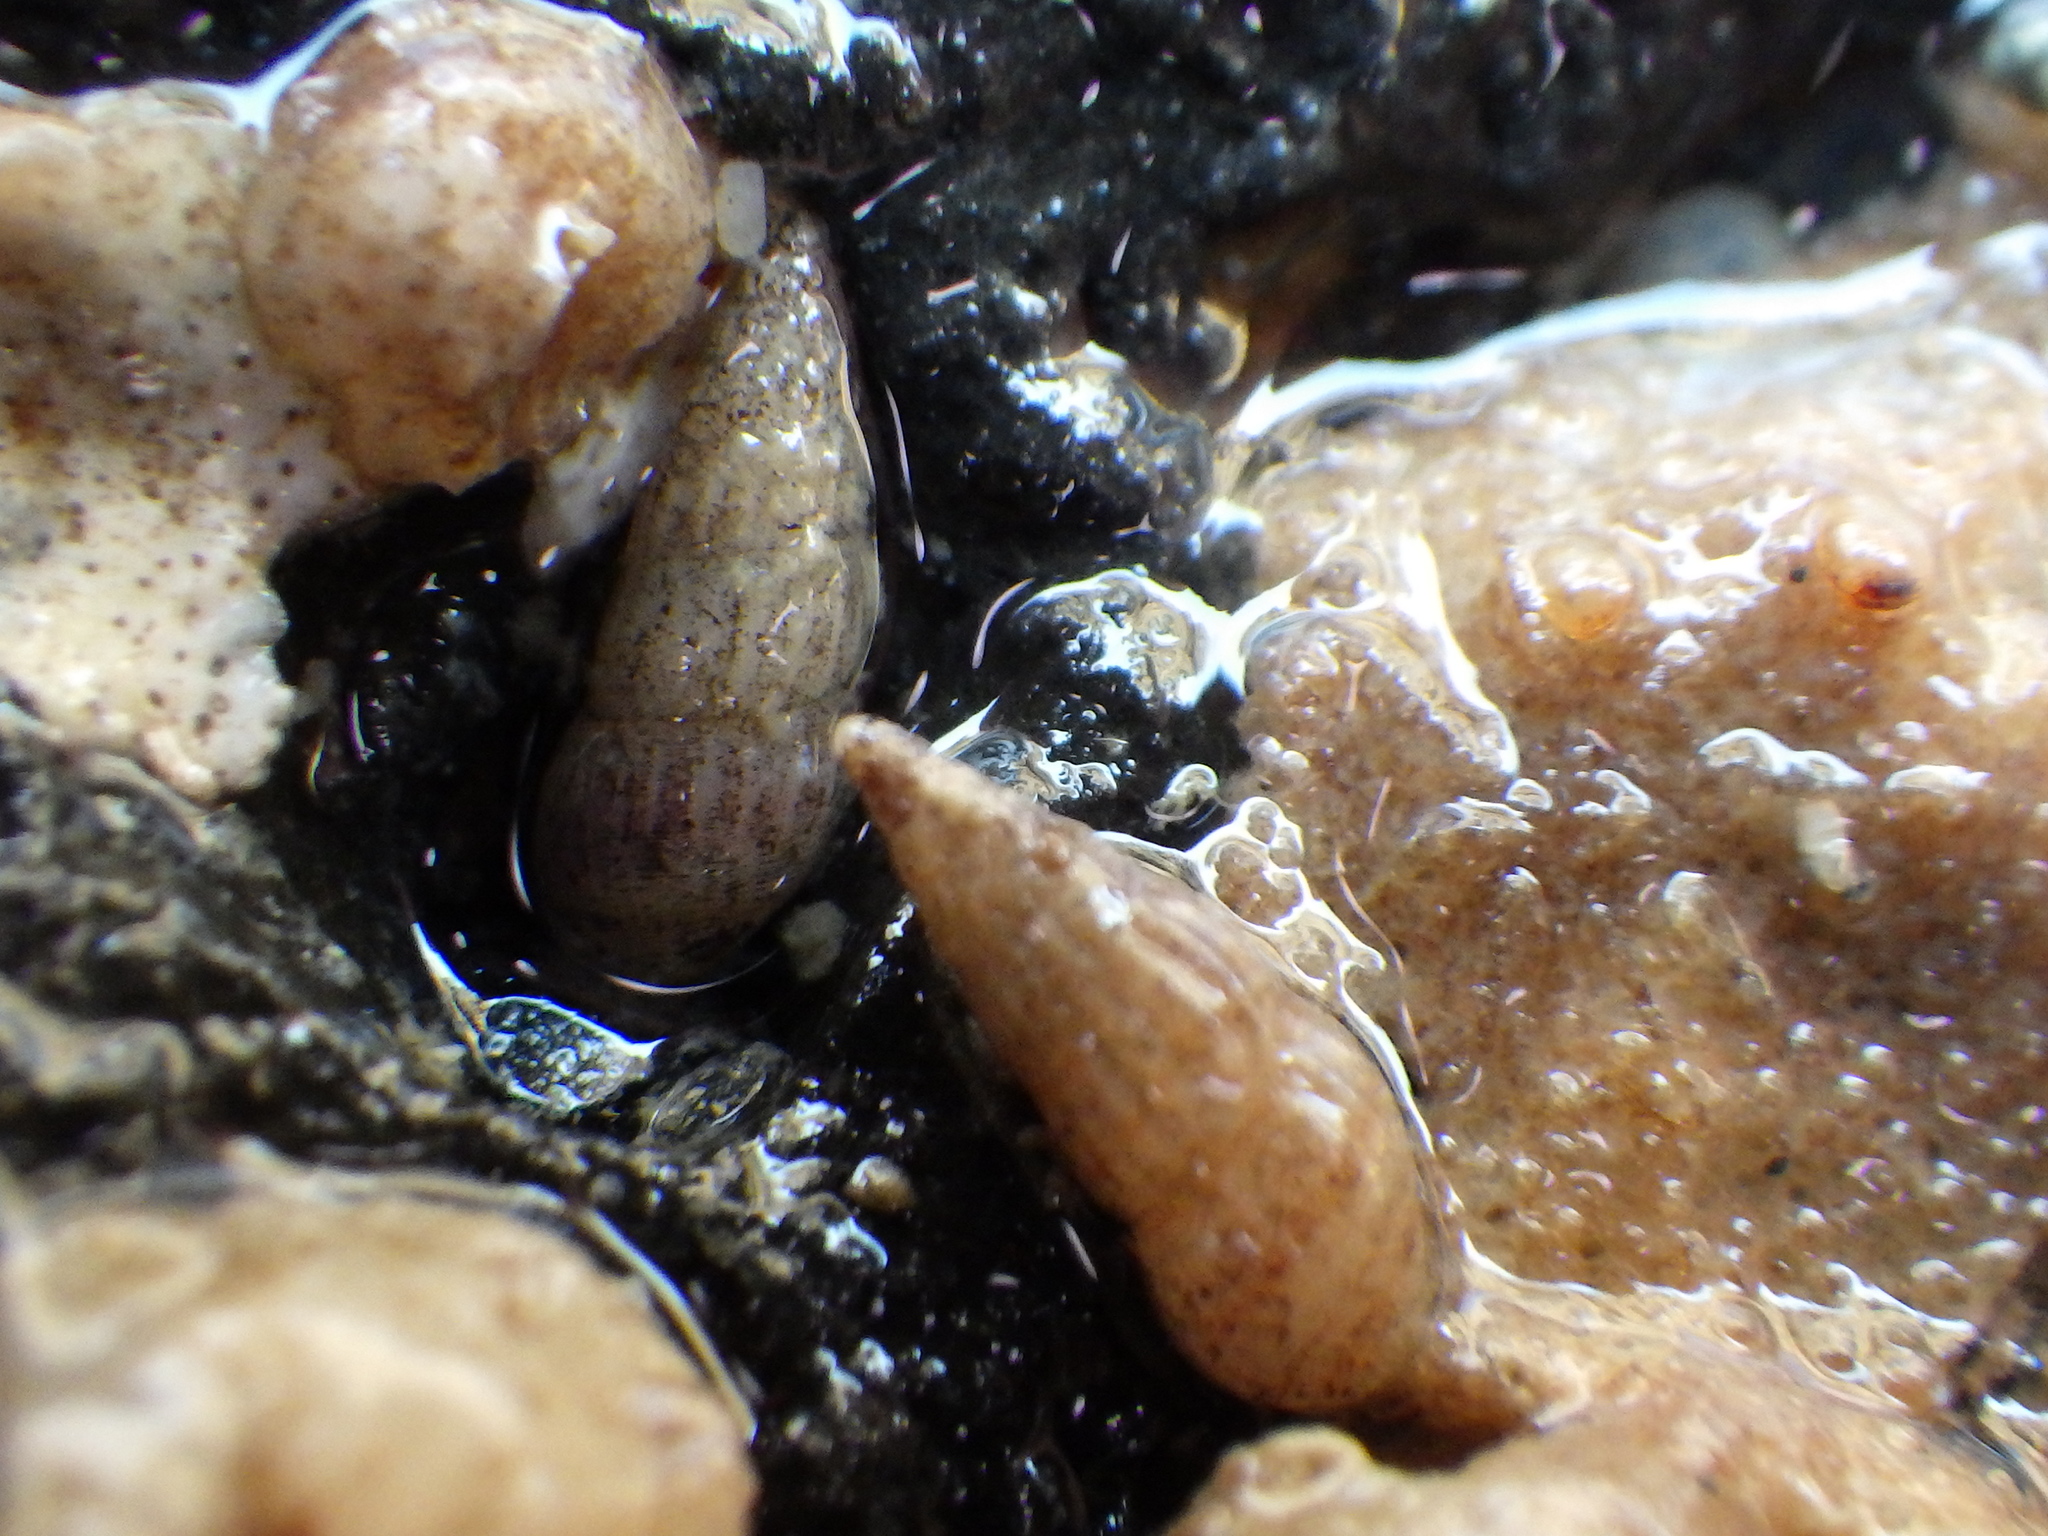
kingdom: Animalia
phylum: Mollusca
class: Gastropoda
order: Littorinimorpha
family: Rissoinidae
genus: Rissoina
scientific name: Rissoina chathamensis
